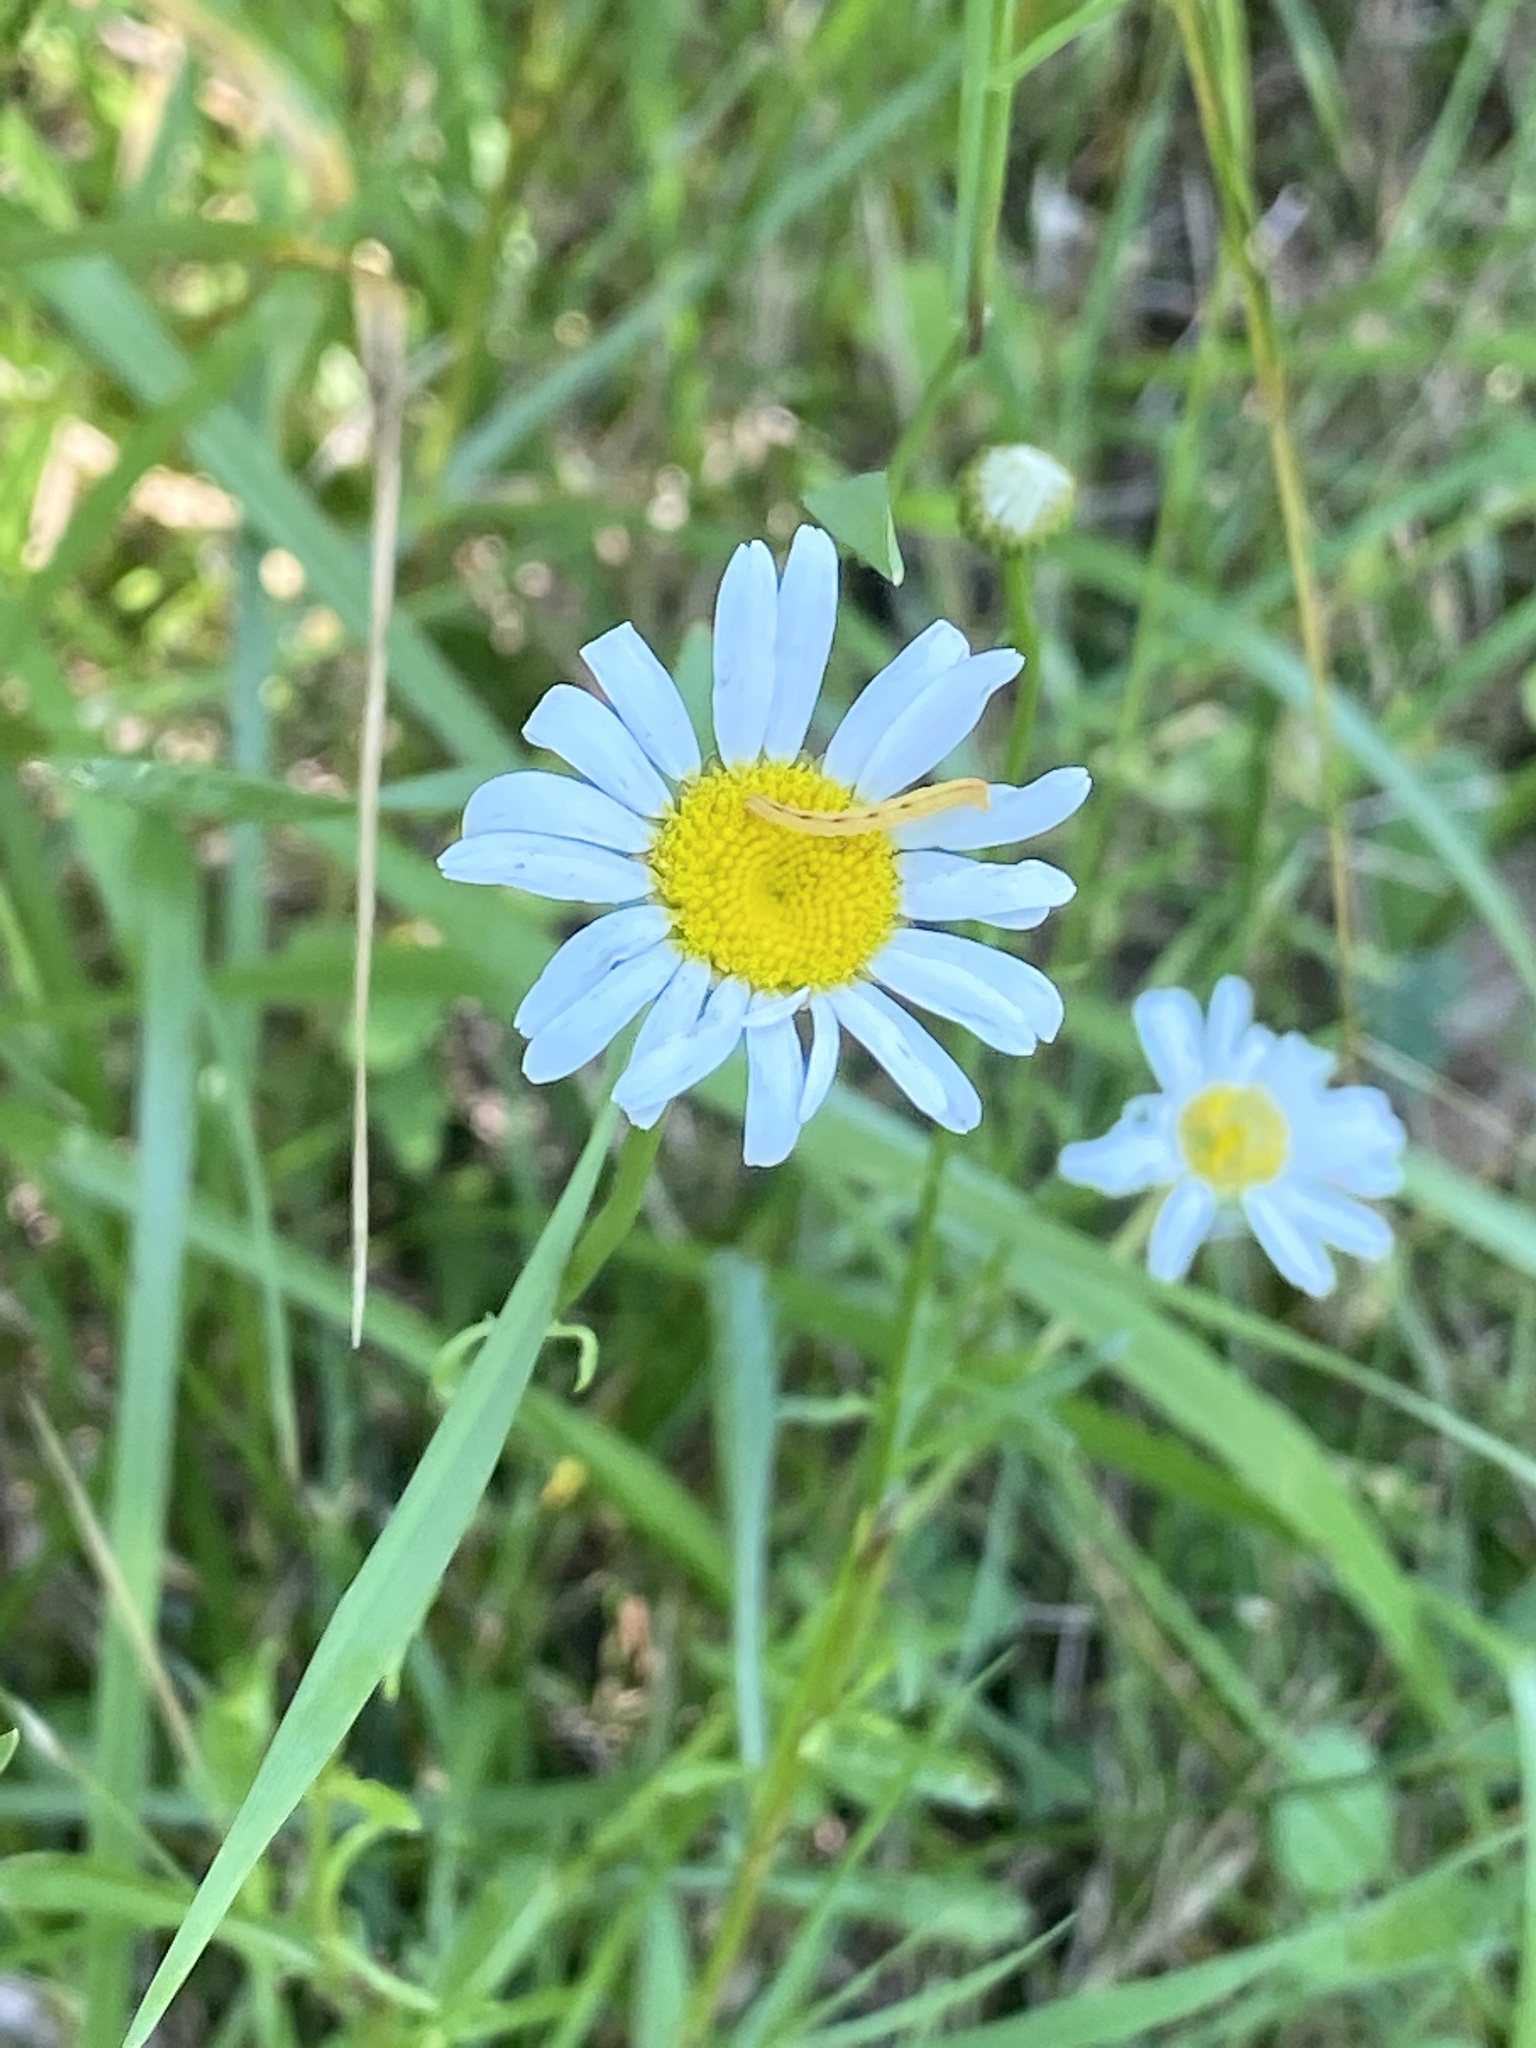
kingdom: Plantae
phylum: Tracheophyta
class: Magnoliopsida
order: Asterales
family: Asteraceae
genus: Leucanthemum
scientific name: Leucanthemum vulgare
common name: Oxeye daisy
